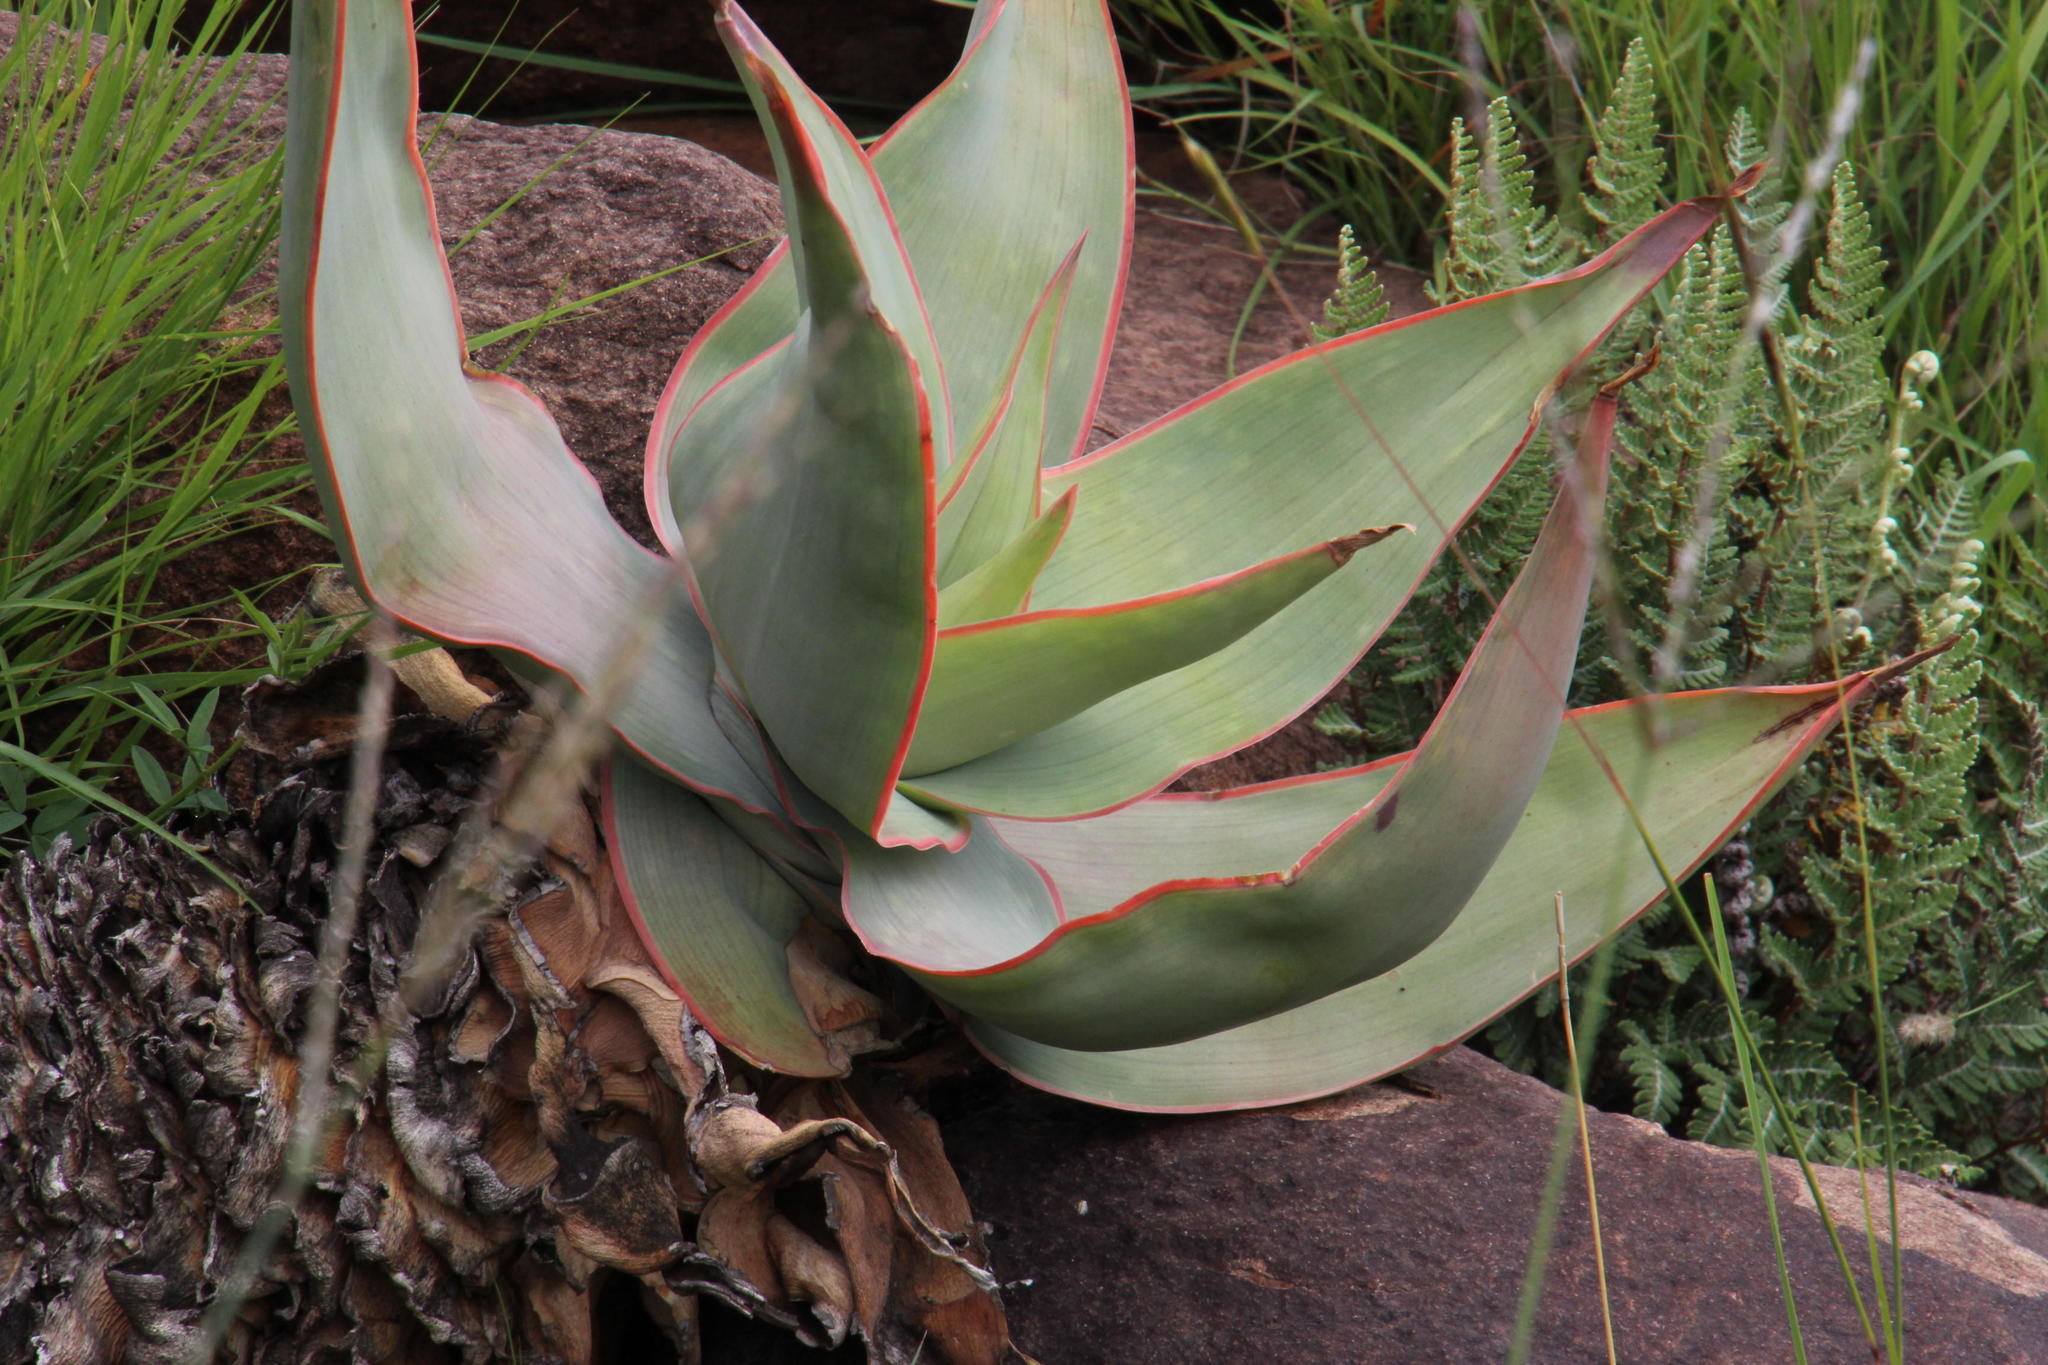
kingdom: Plantae
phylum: Tracheophyta
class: Liliopsida
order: Asparagales
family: Asphodelaceae
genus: Aloe
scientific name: Aloe striata
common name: Coral aloe
